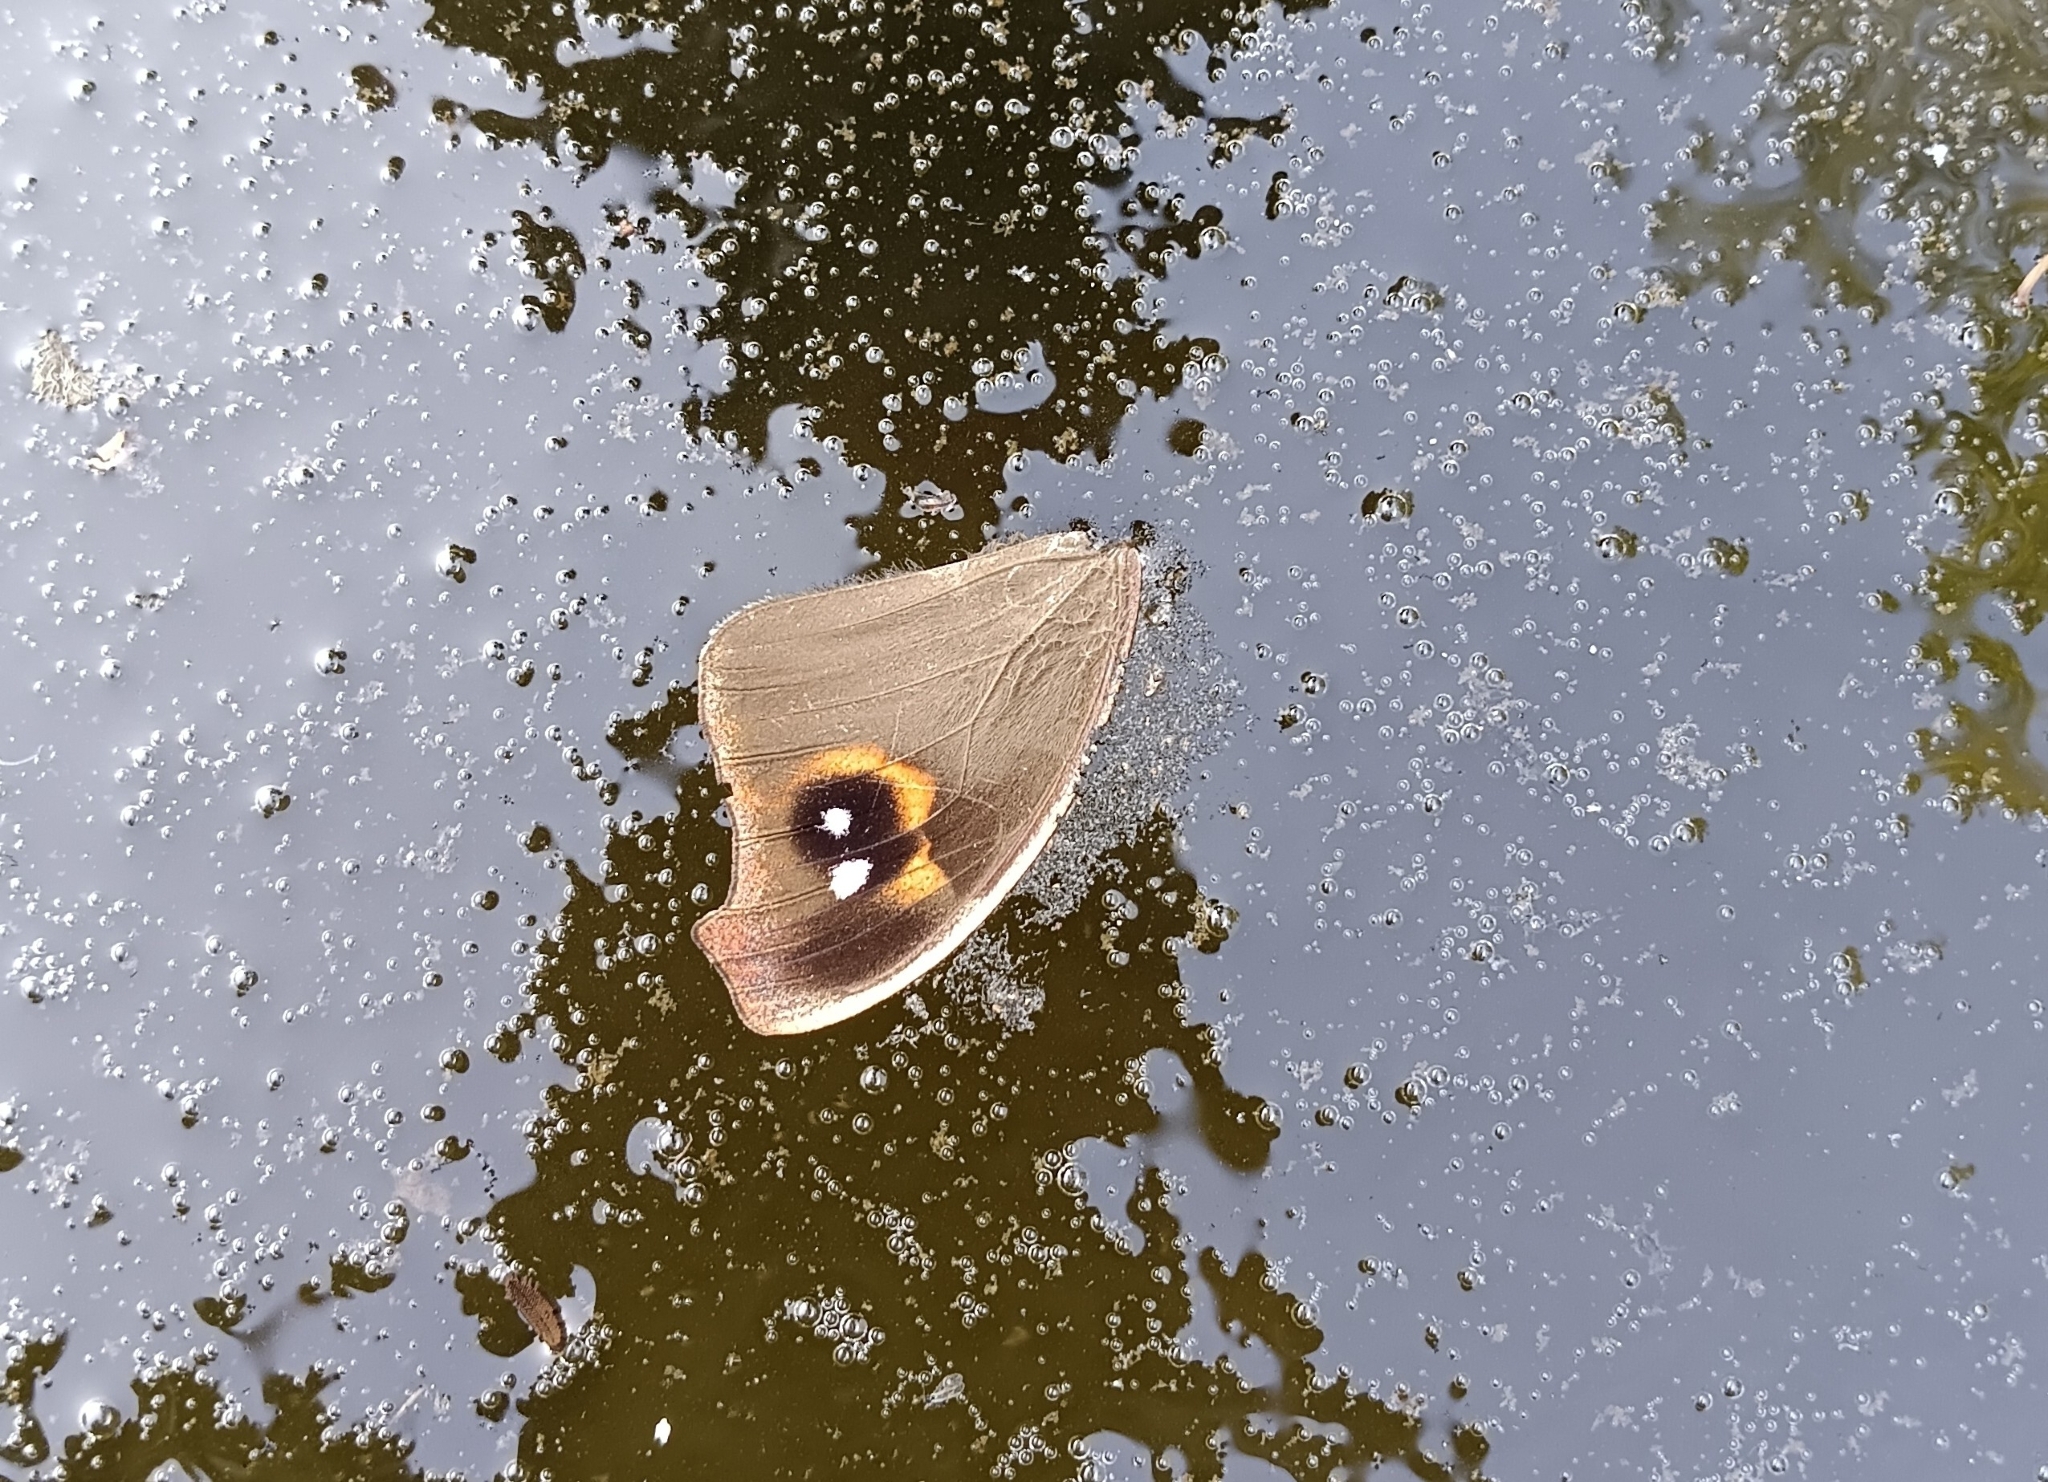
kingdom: Animalia
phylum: Arthropoda
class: Insecta
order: Lepidoptera
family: Nymphalidae
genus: Melanitis
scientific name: Melanitis leda
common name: Twilight brown
